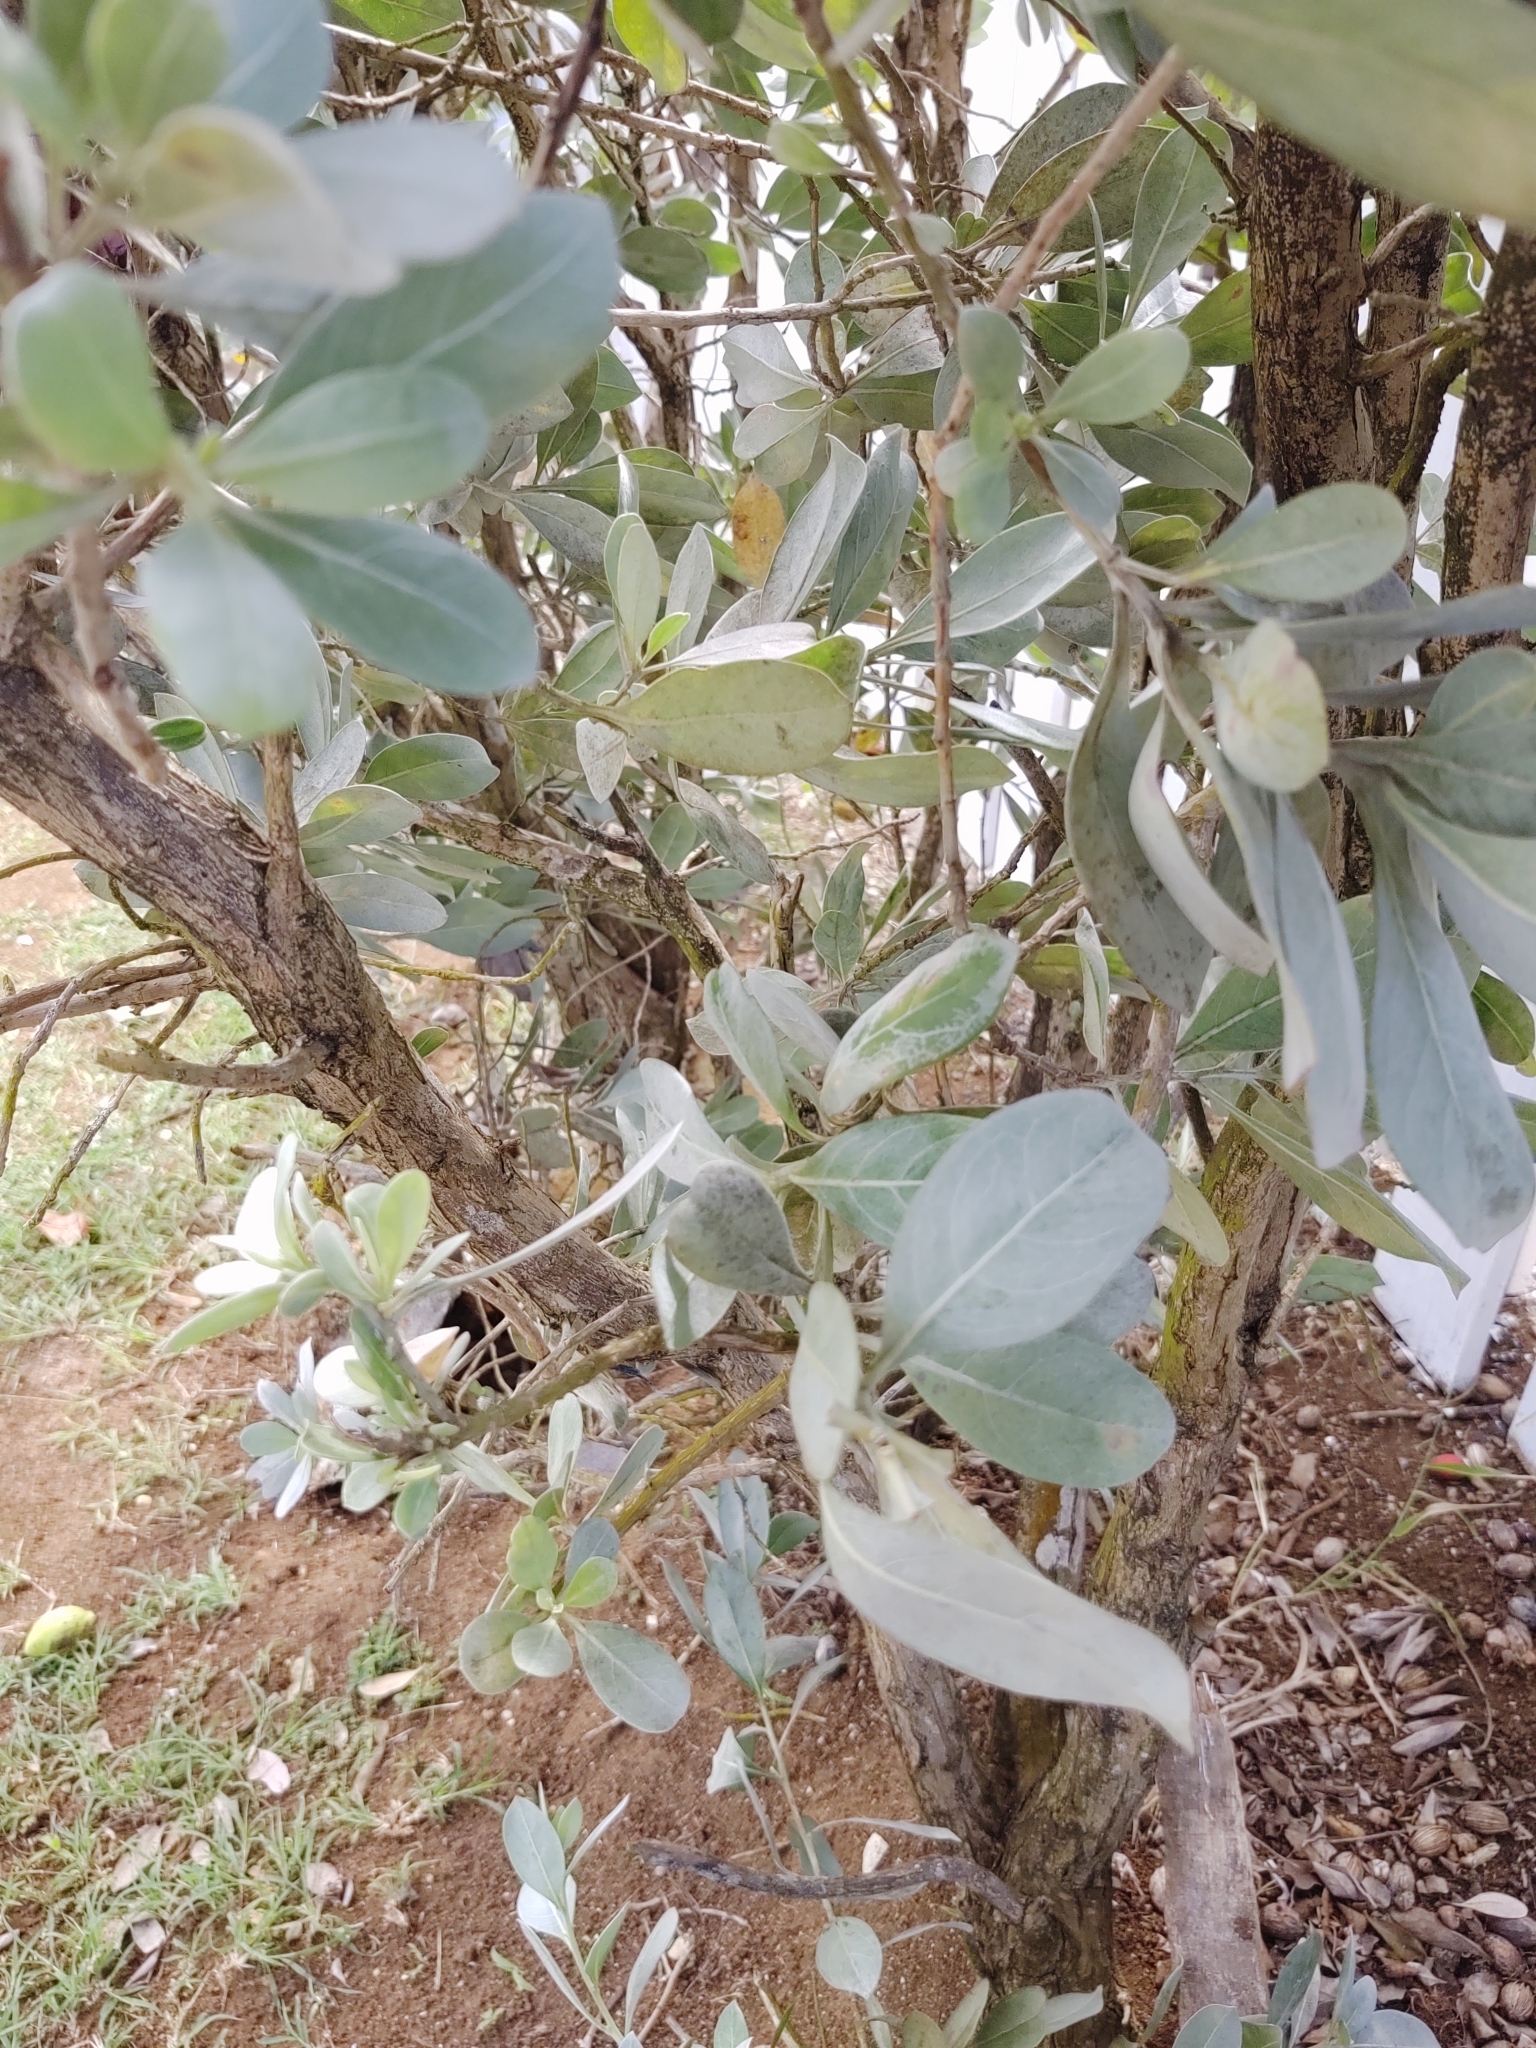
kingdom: Plantae
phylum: Tracheophyta
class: Magnoliopsida
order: Myrtales
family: Combretaceae
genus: Conocarpus
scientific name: Conocarpus erectus
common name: Button mangrove
